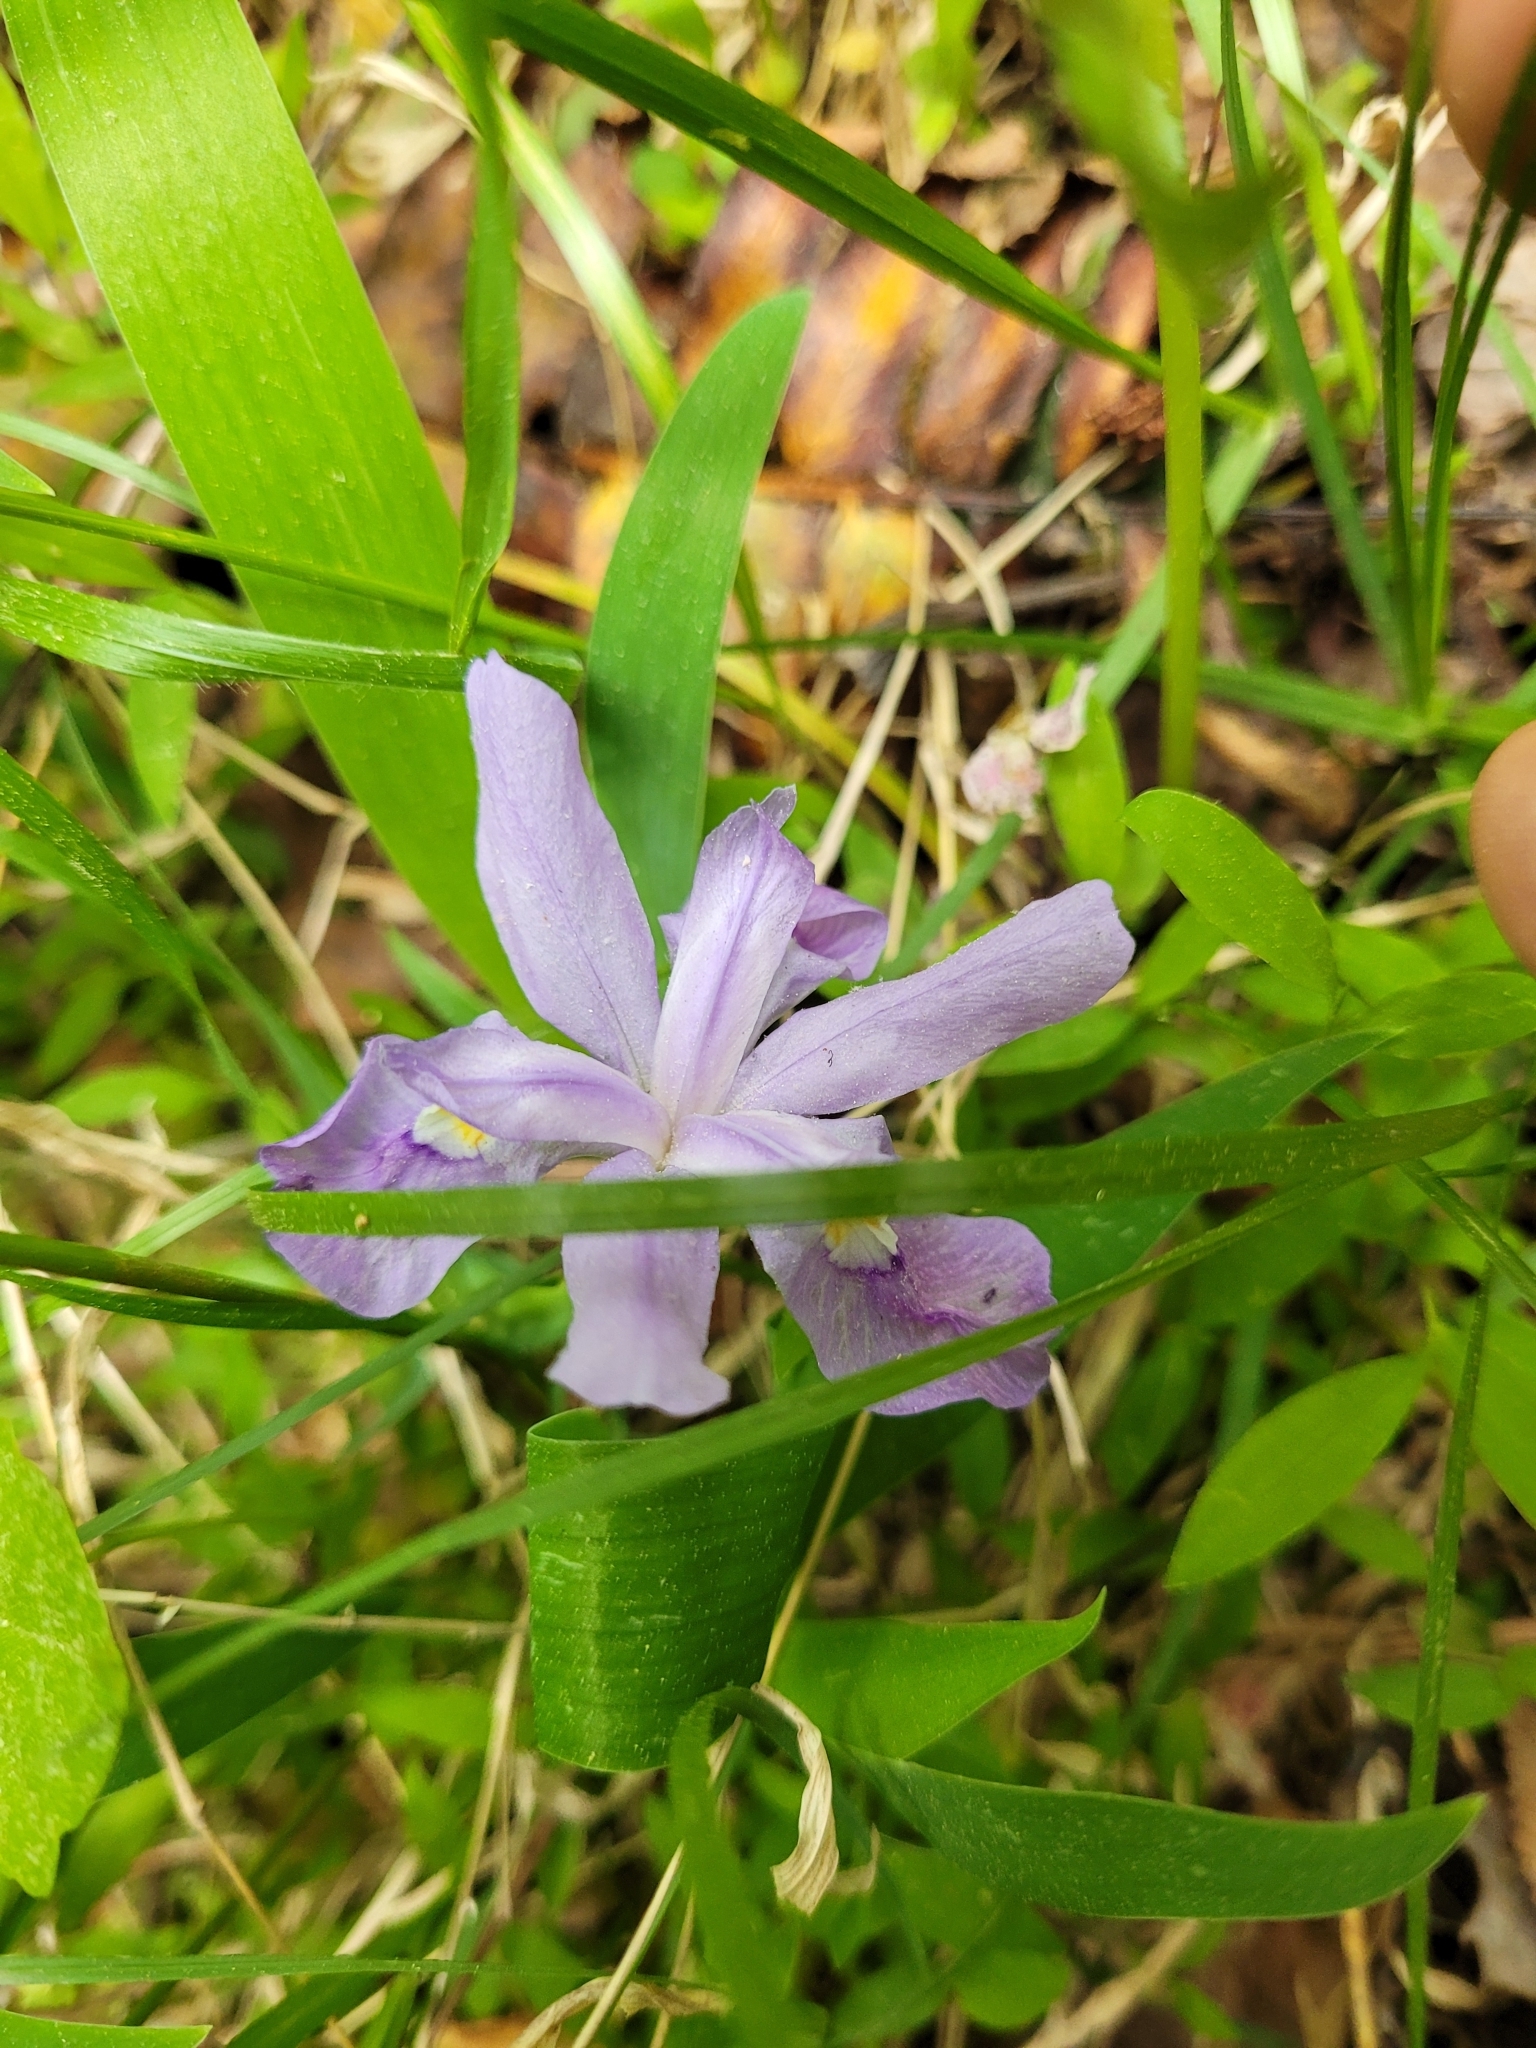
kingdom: Plantae
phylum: Tracheophyta
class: Liliopsida
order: Asparagales
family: Iridaceae
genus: Iris
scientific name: Iris cristata
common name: Crested iris
